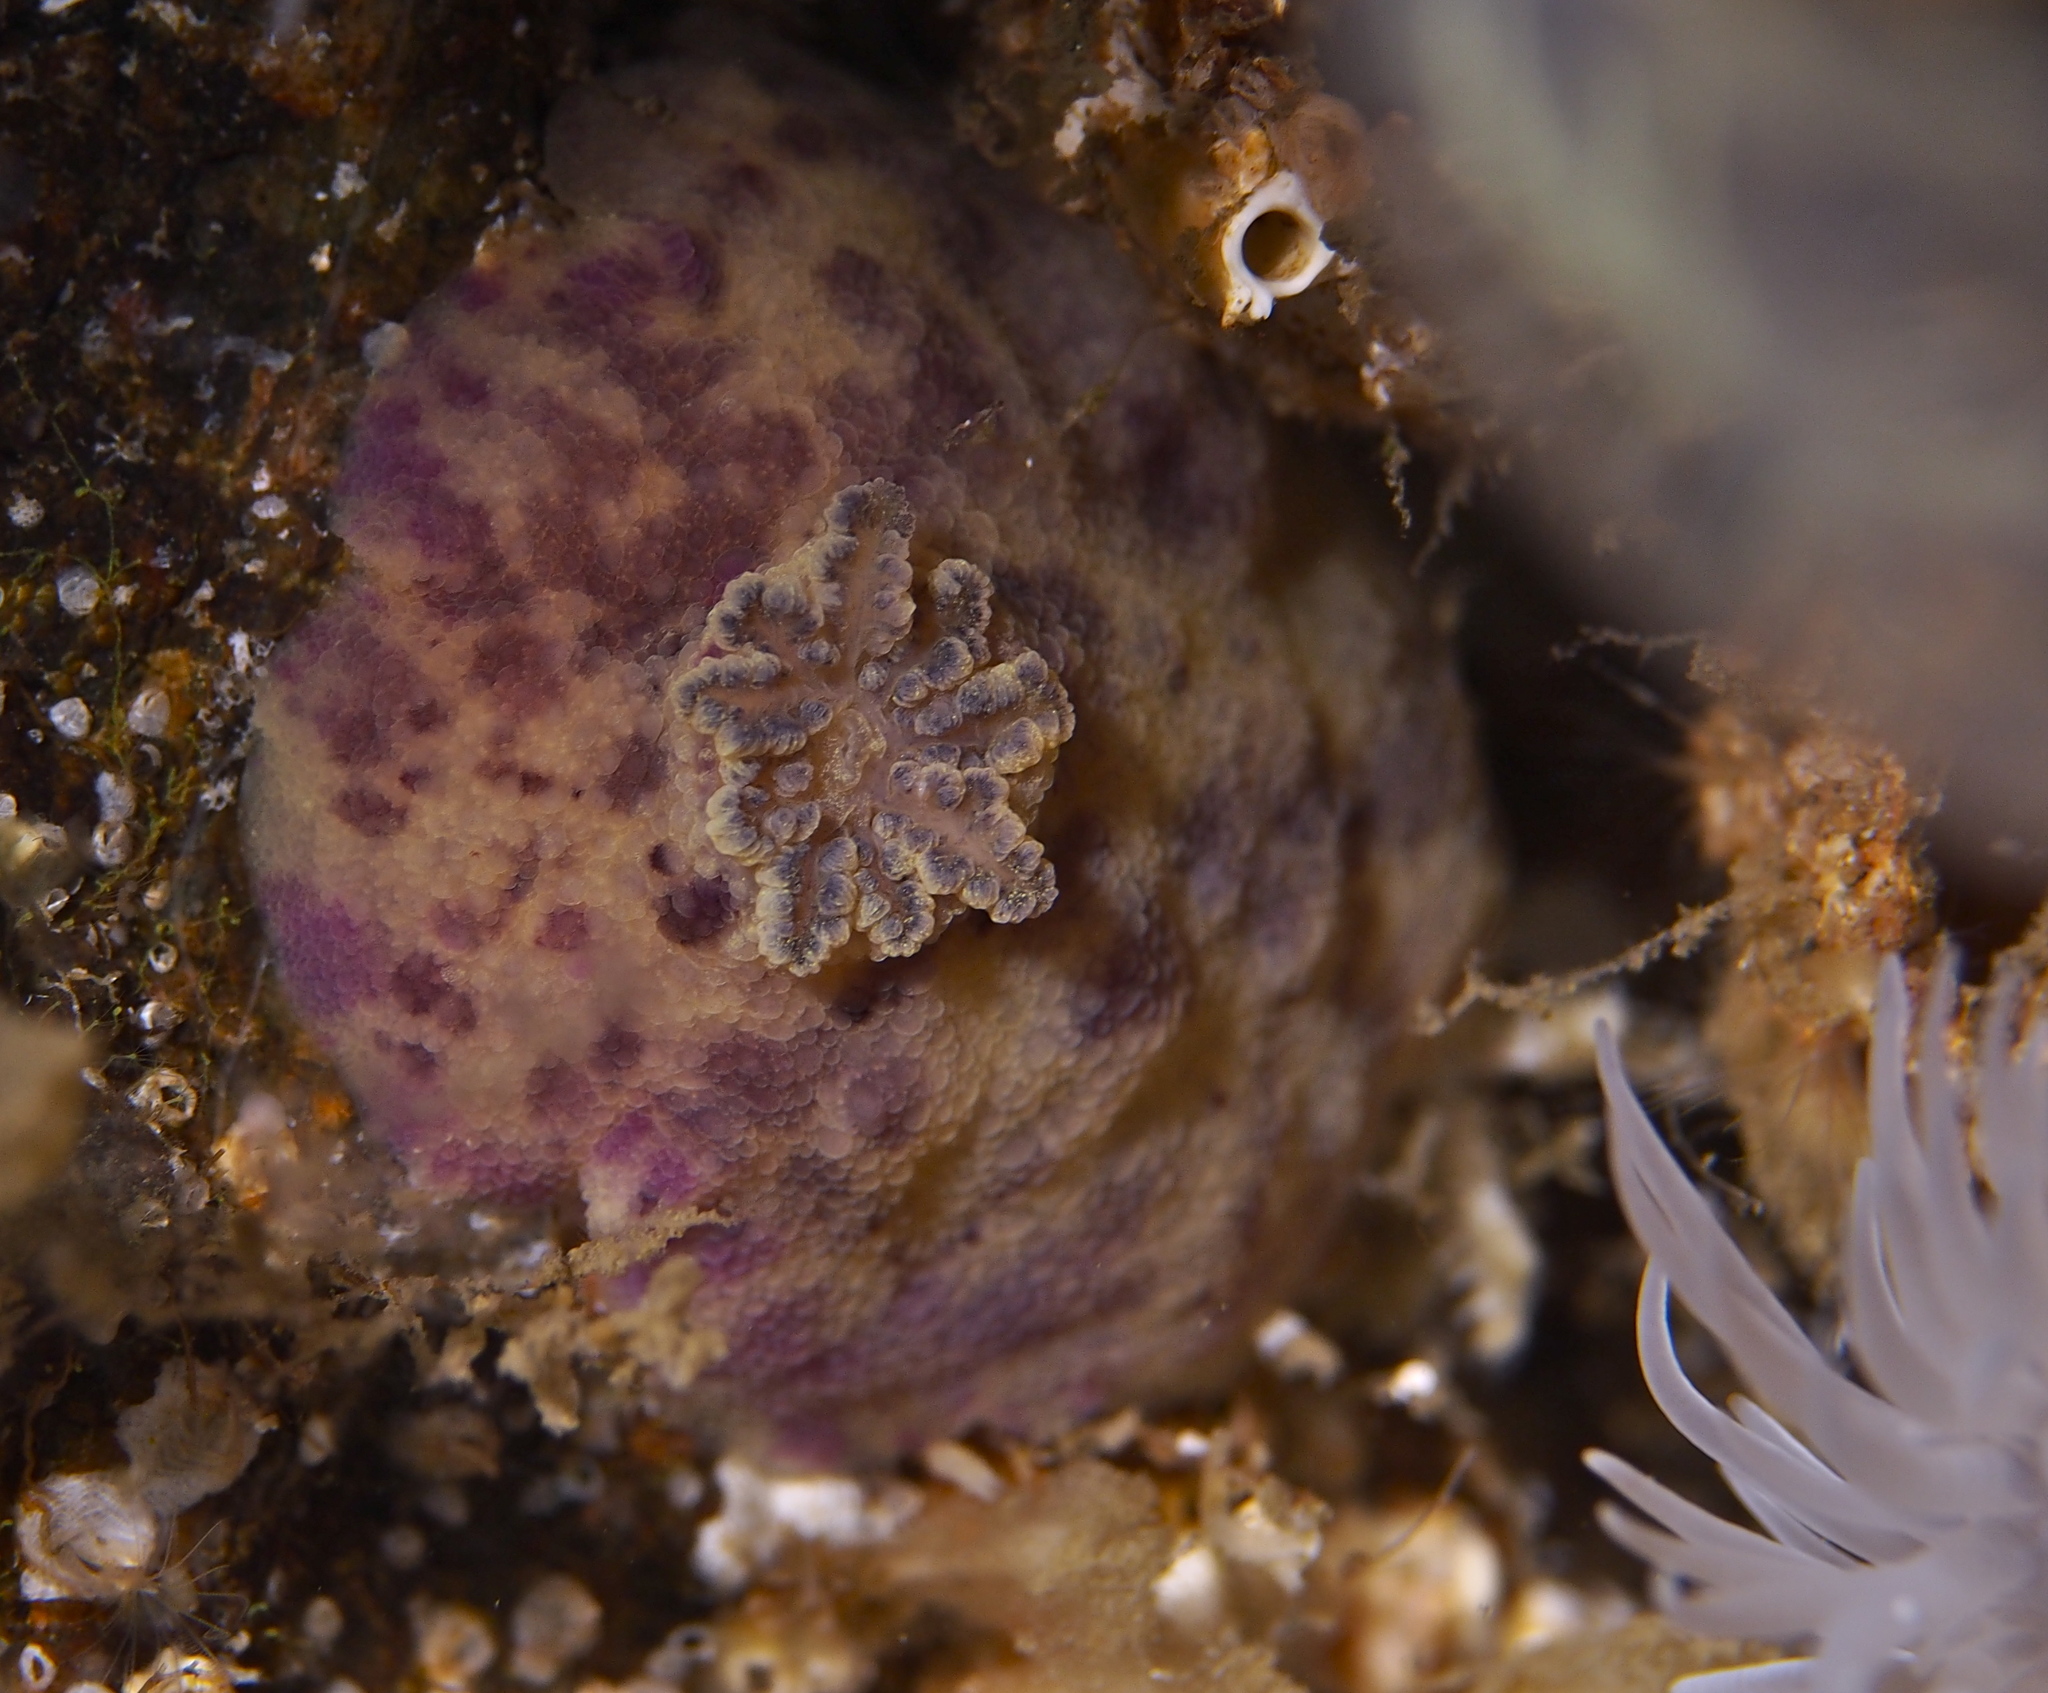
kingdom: Animalia
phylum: Mollusca
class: Gastropoda
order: Nudibranchia
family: Dorididae
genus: Doris
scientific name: Doris pseudoargus
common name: Sea lemon
